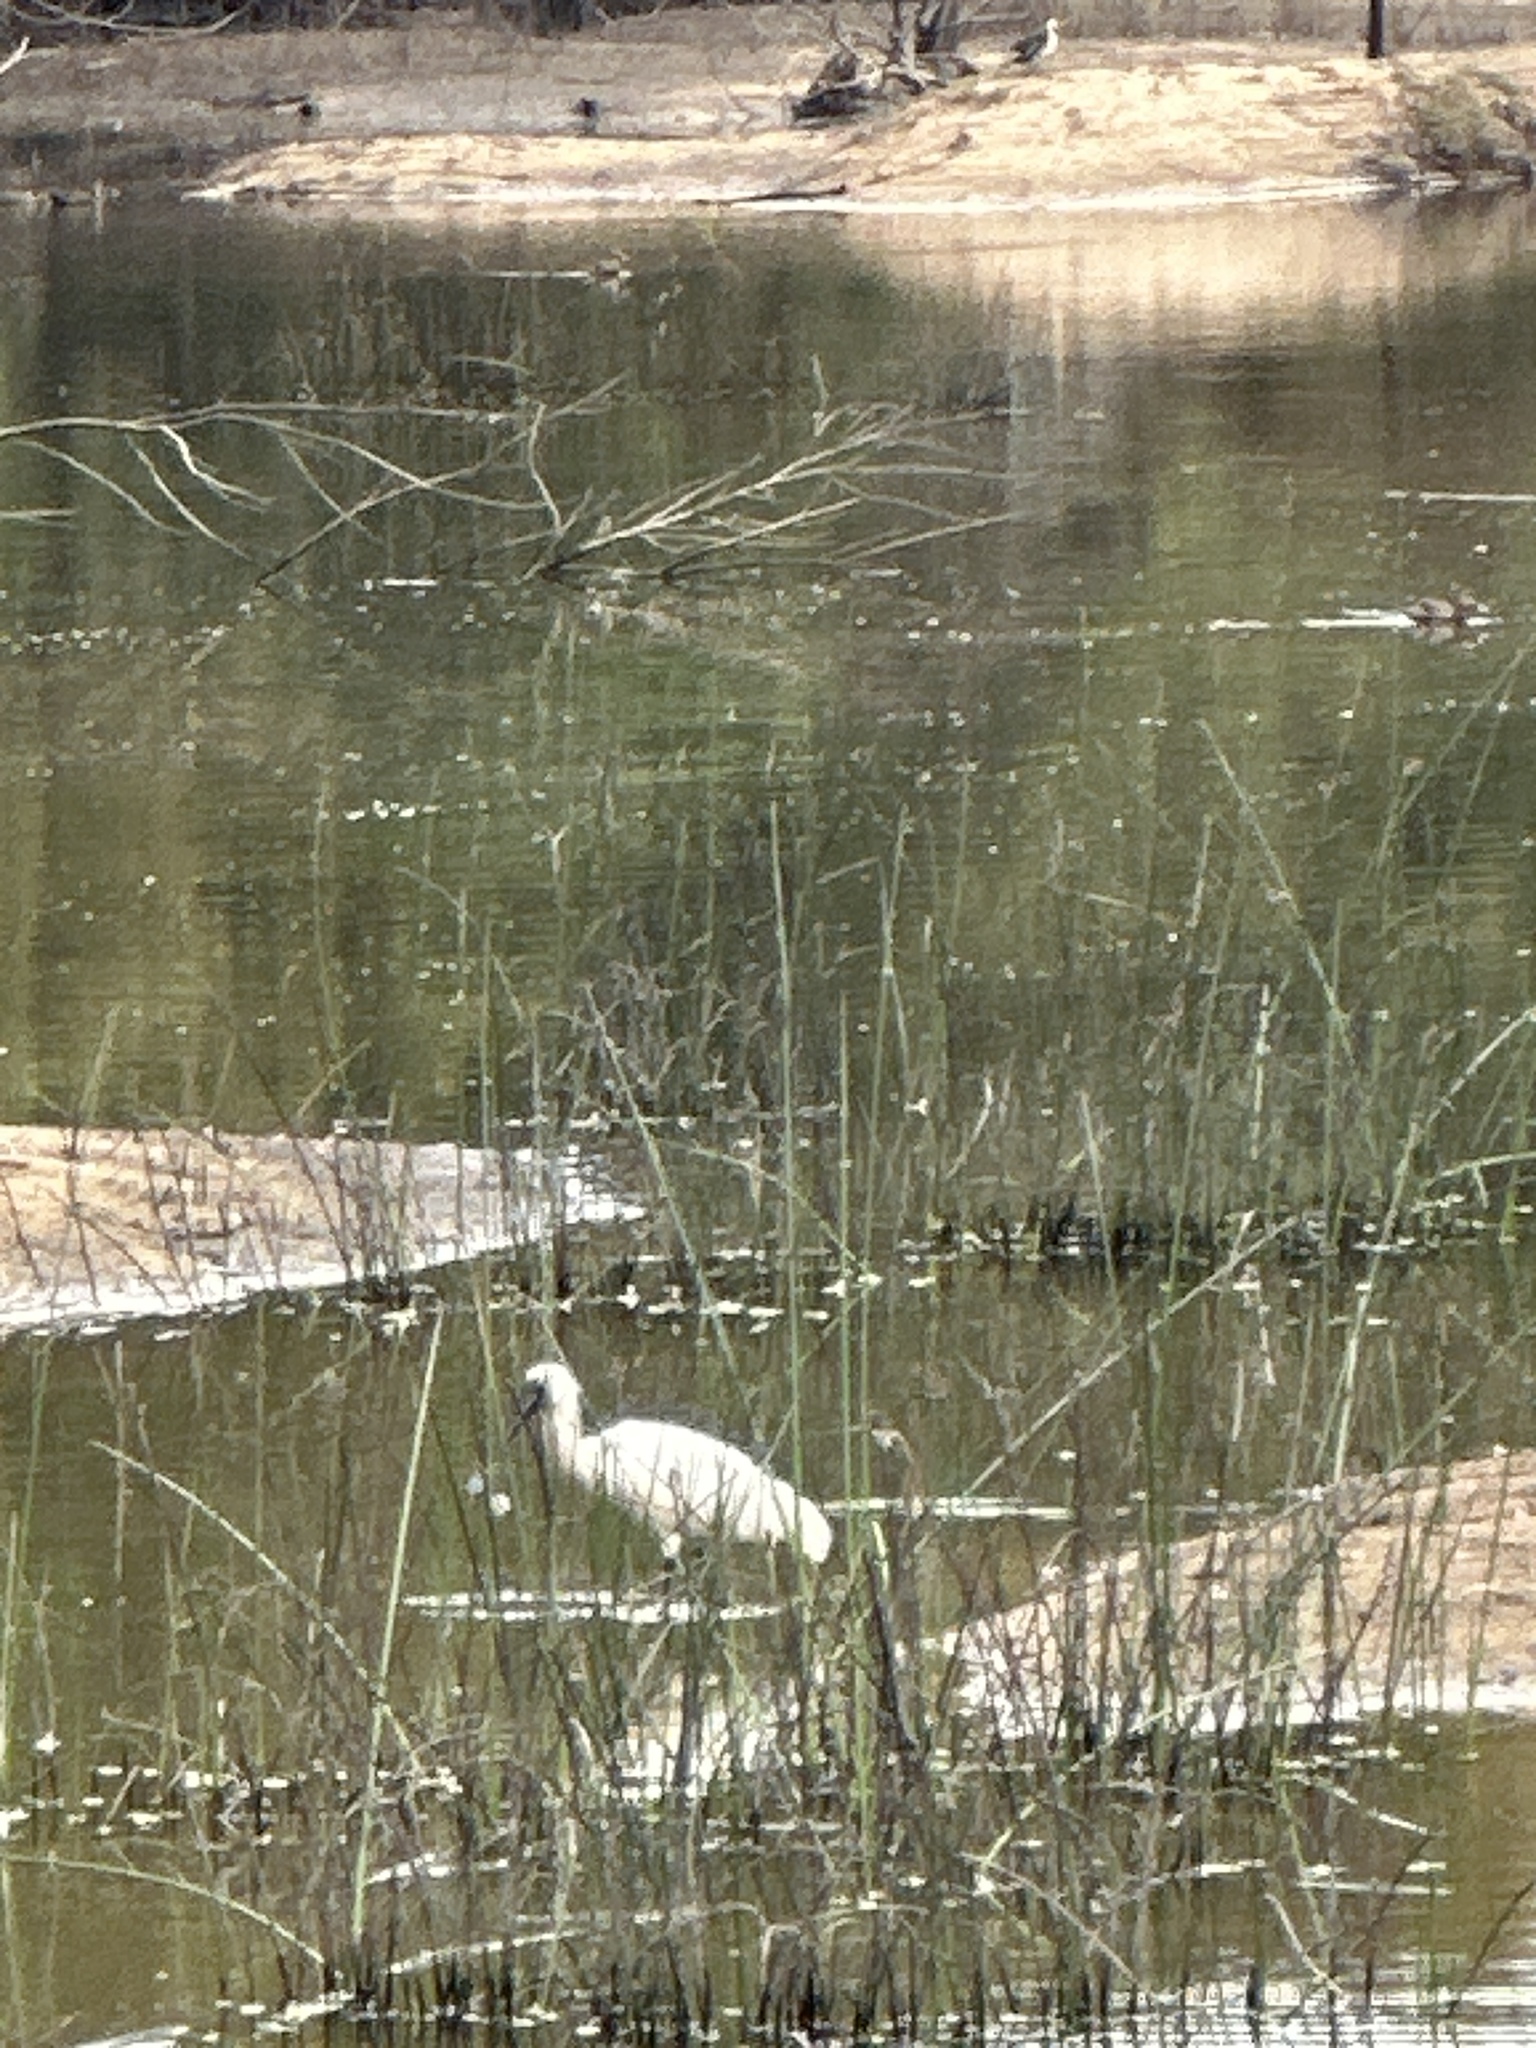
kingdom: Animalia
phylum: Chordata
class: Aves
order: Pelecaniformes
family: Threskiornithidae
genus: Platalea
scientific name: Platalea regia
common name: Royal spoonbill
